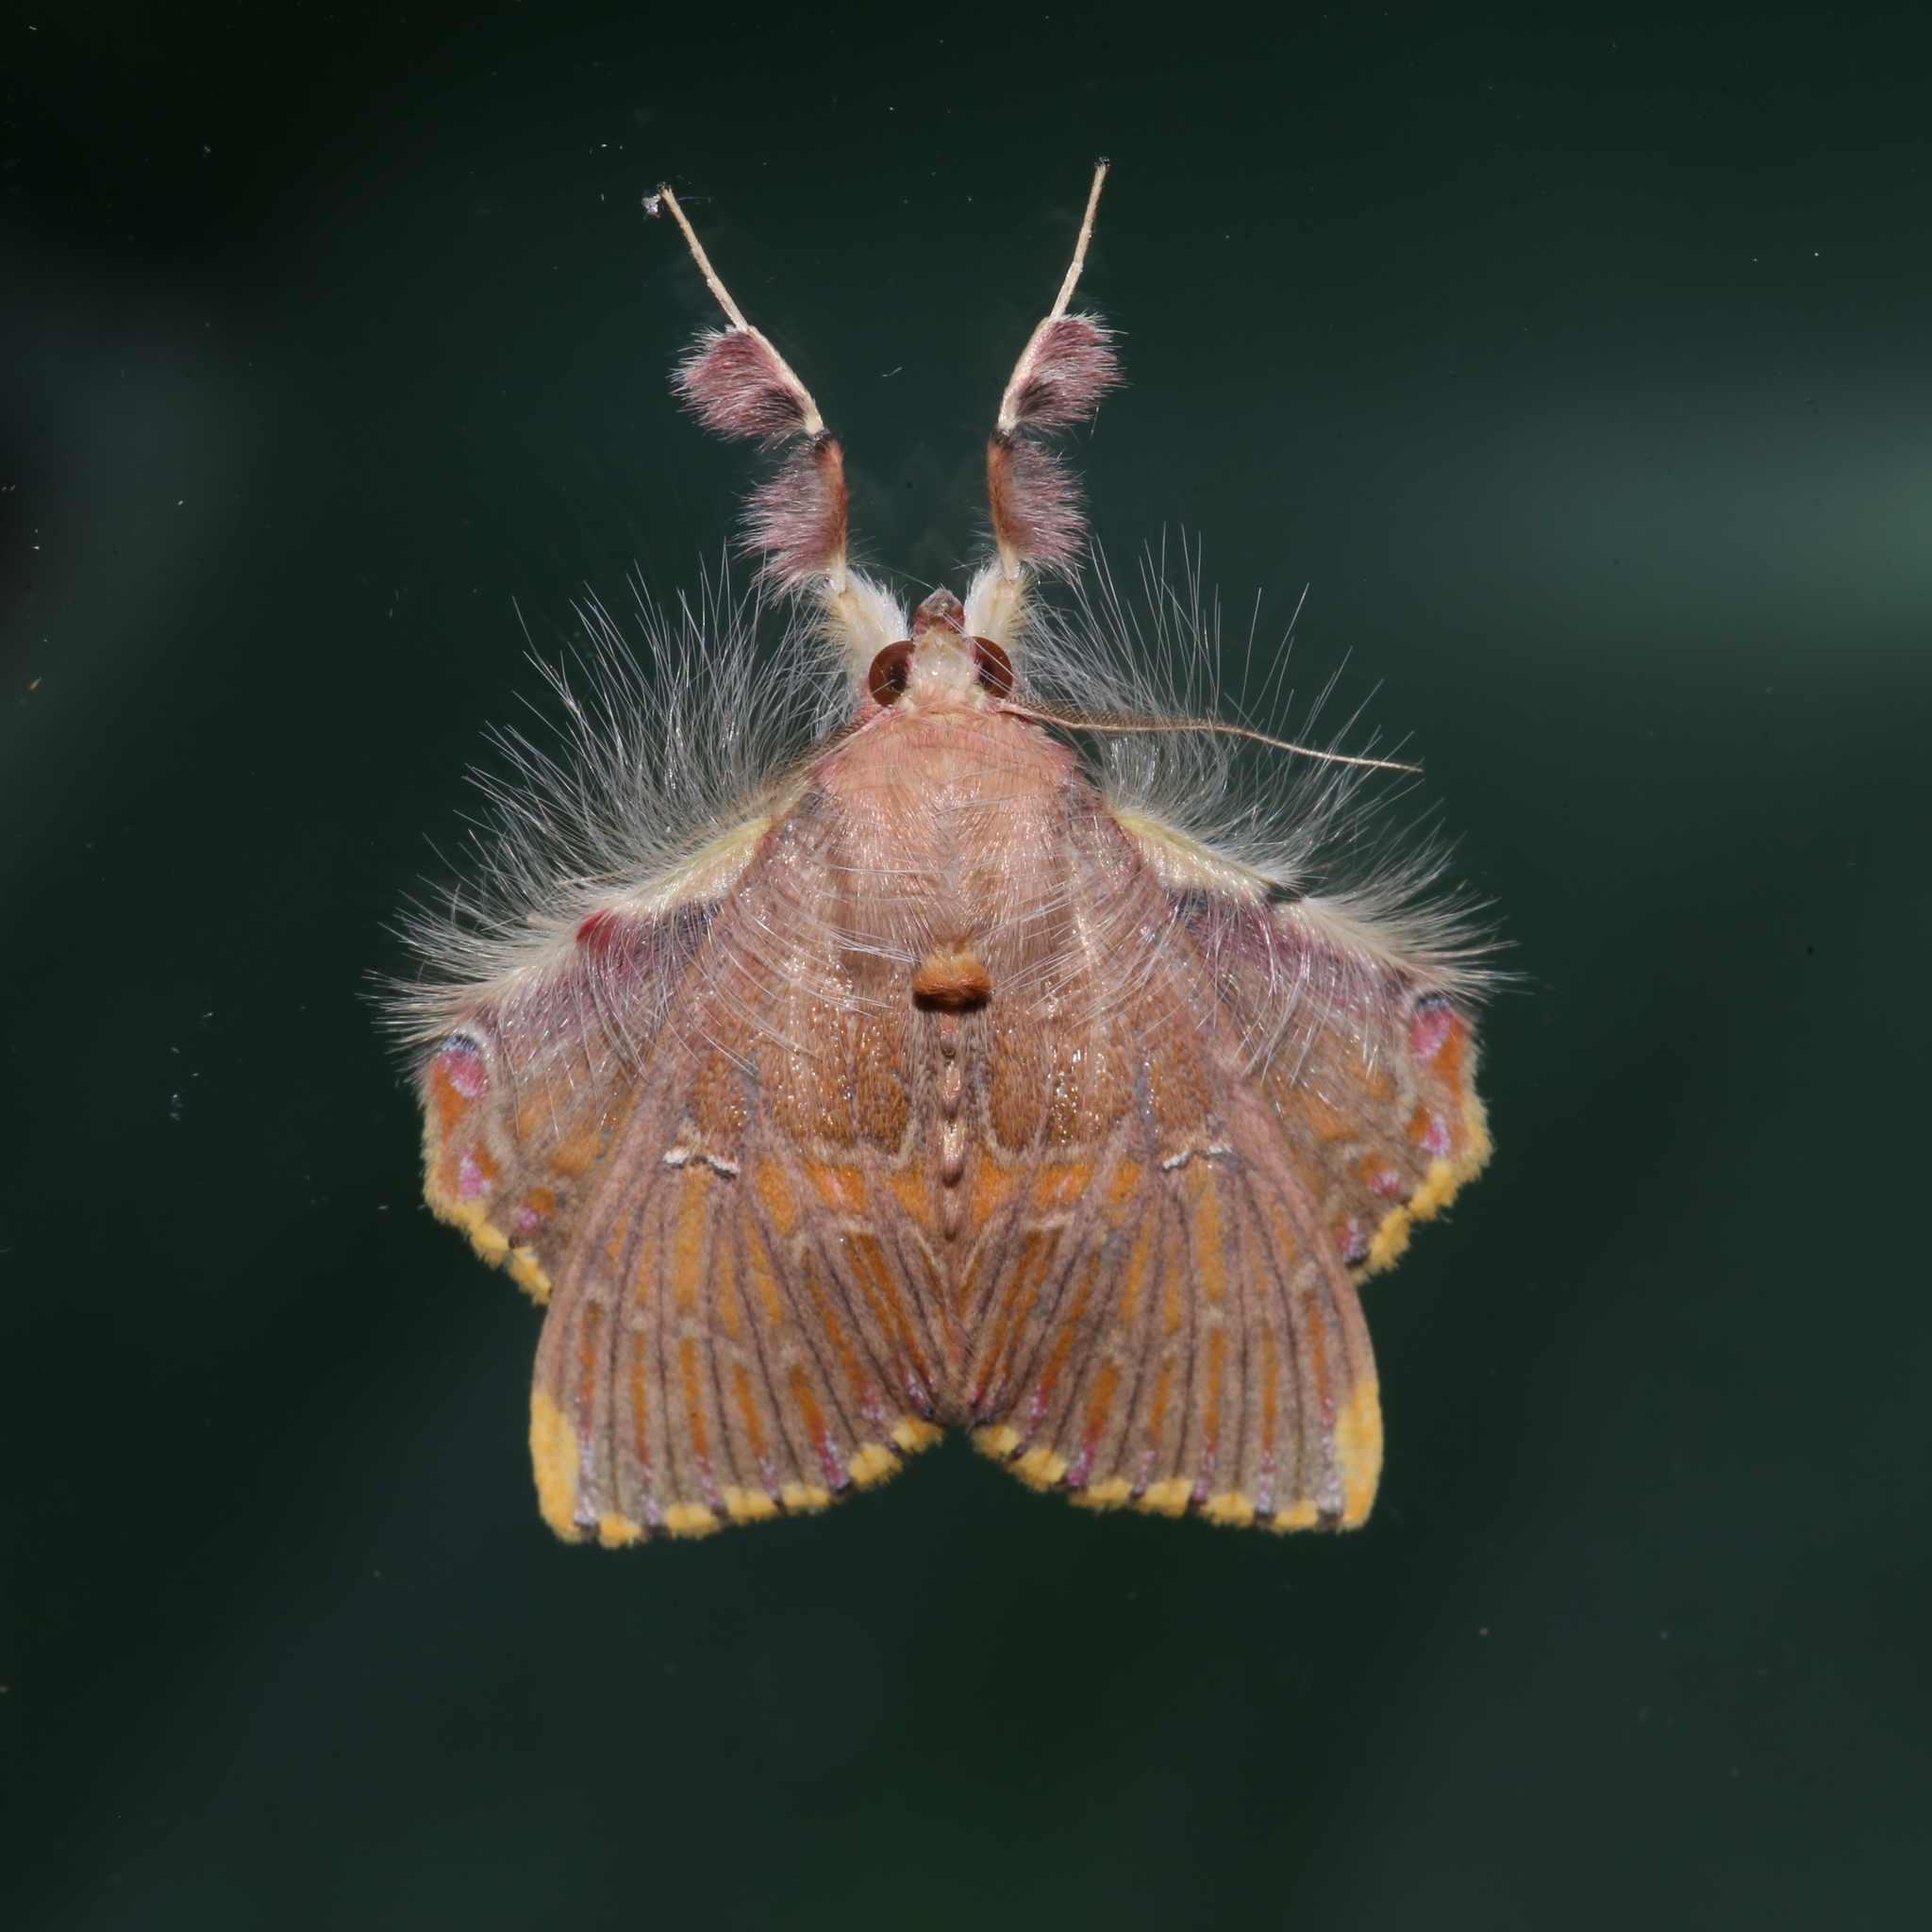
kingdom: Animalia
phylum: Arthropoda
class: Insecta
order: Lepidoptera
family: Erebidae
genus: Sosxetra
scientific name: Sosxetra grata
